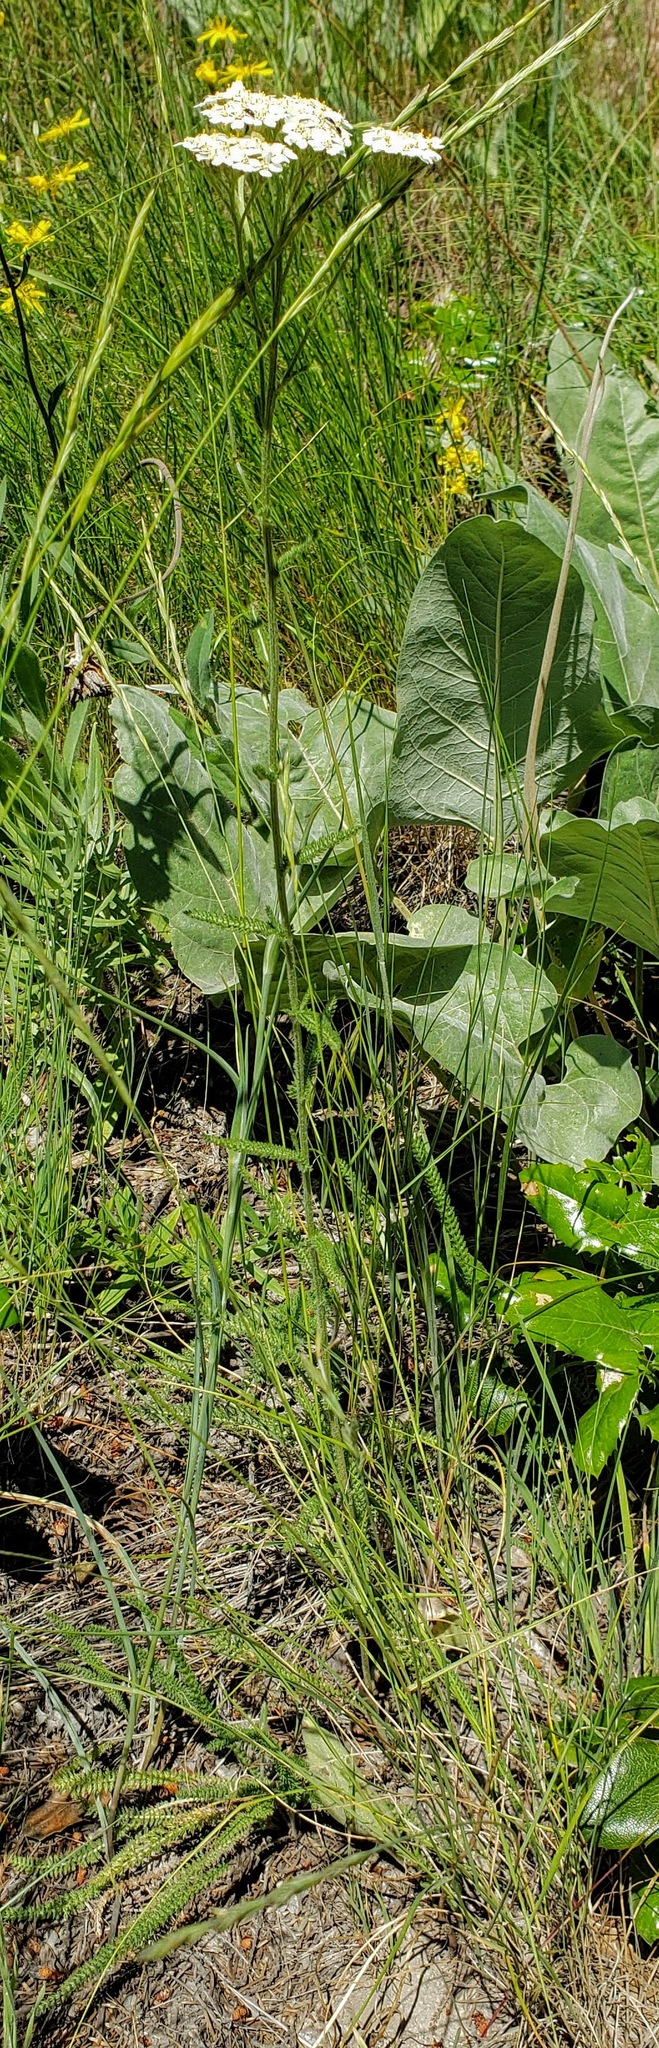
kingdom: Plantae
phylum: Tracheophyta
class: Magnoliopsida
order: Asterales
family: Asteraceae
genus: Achillea
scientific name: Achillea millefolium
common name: Yarrow
